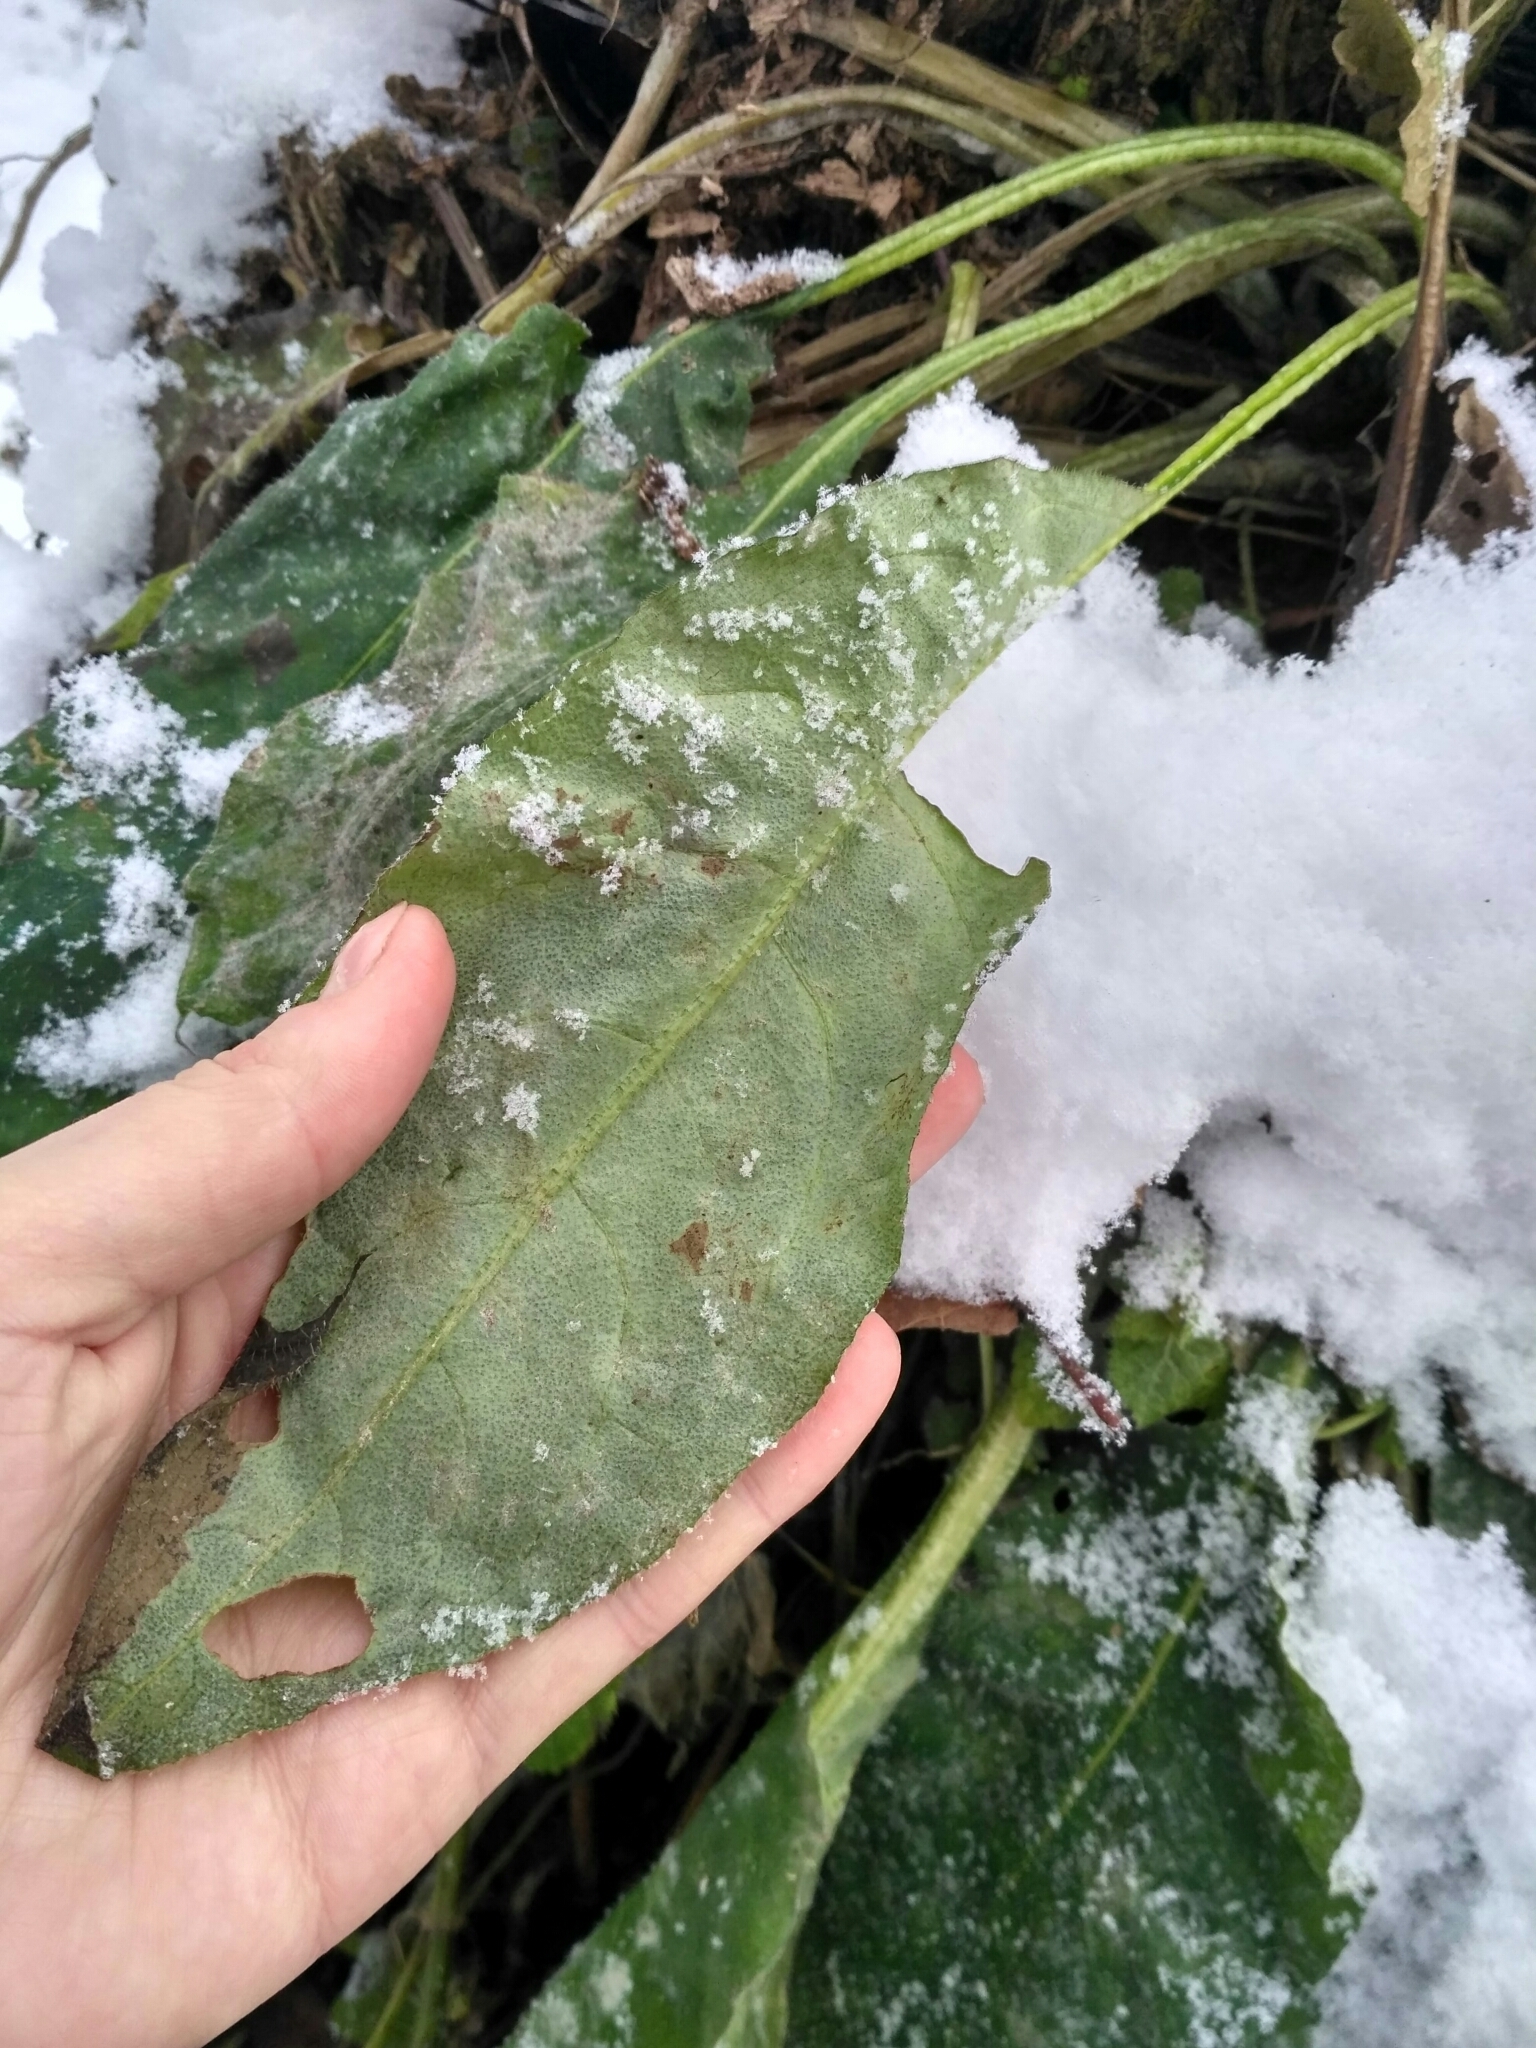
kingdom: Plantae
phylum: Tracheophyta
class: Magnoliopsida
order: Boraginales
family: Boraginaceae
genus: Pulmonaria
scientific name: Pulmonaria obscura
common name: Suffolk lungwort
